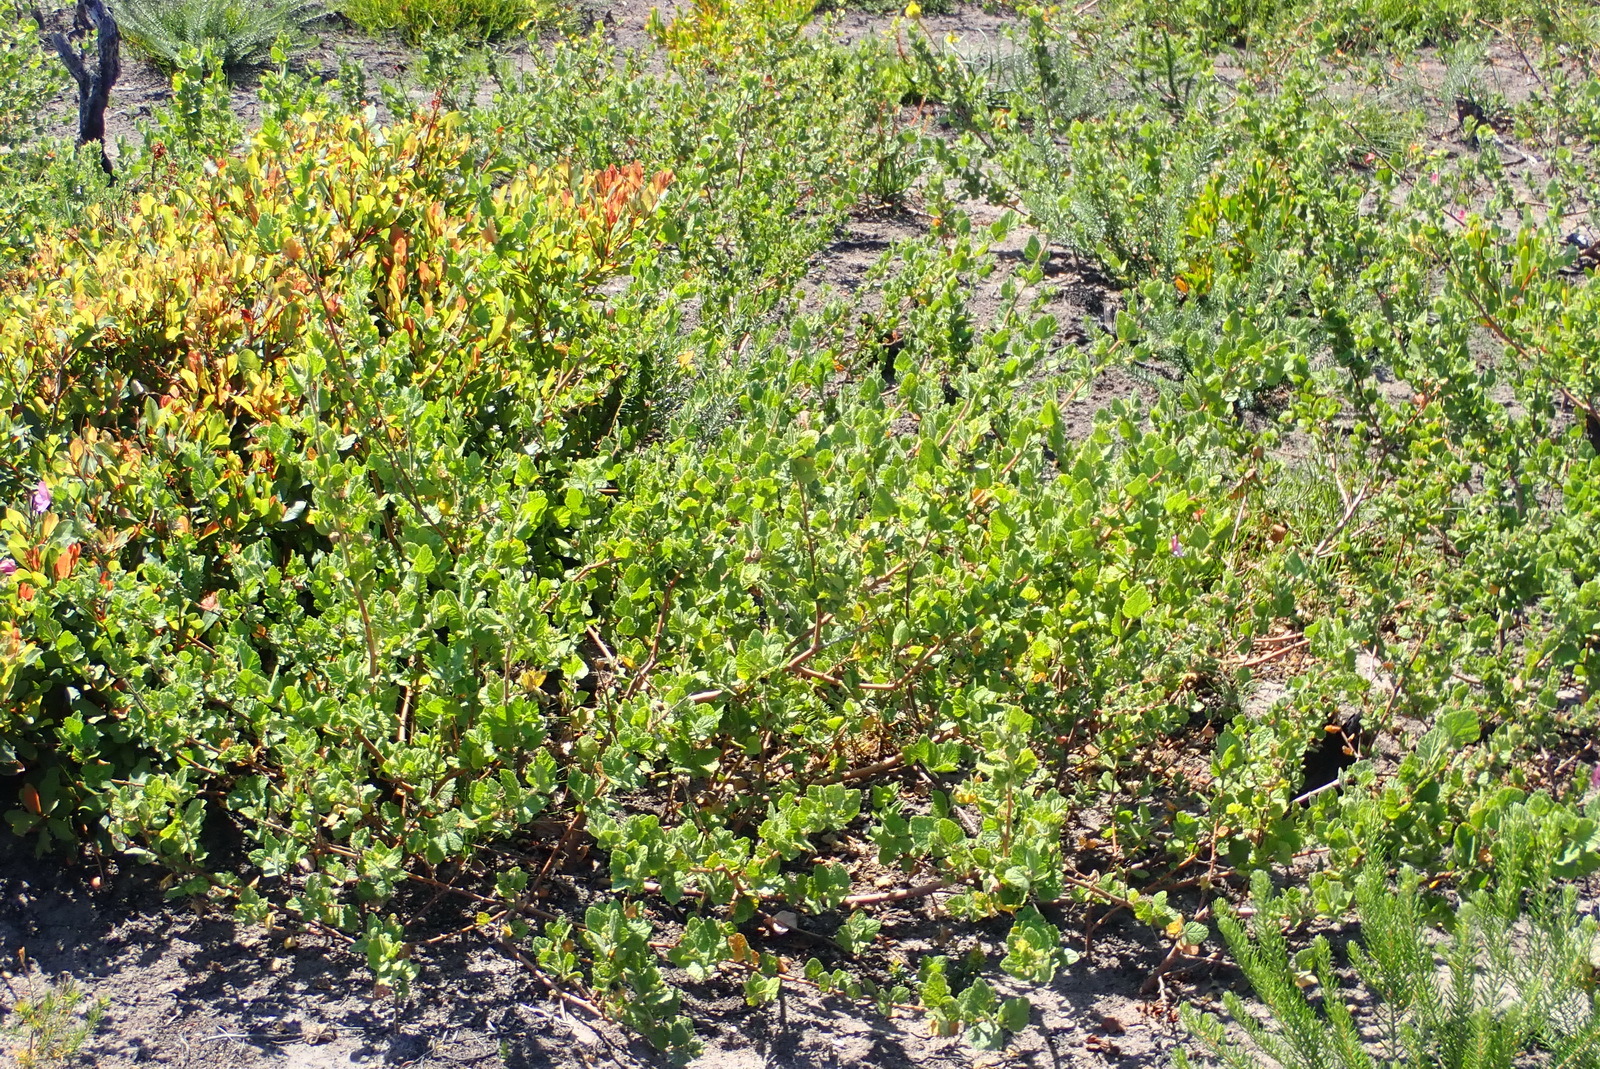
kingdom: Plantae
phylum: Tracheophyta
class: Magnoliopsida
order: Malvales
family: Malvaceae
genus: Anisodontea
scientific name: Anisodontea scabrosa
